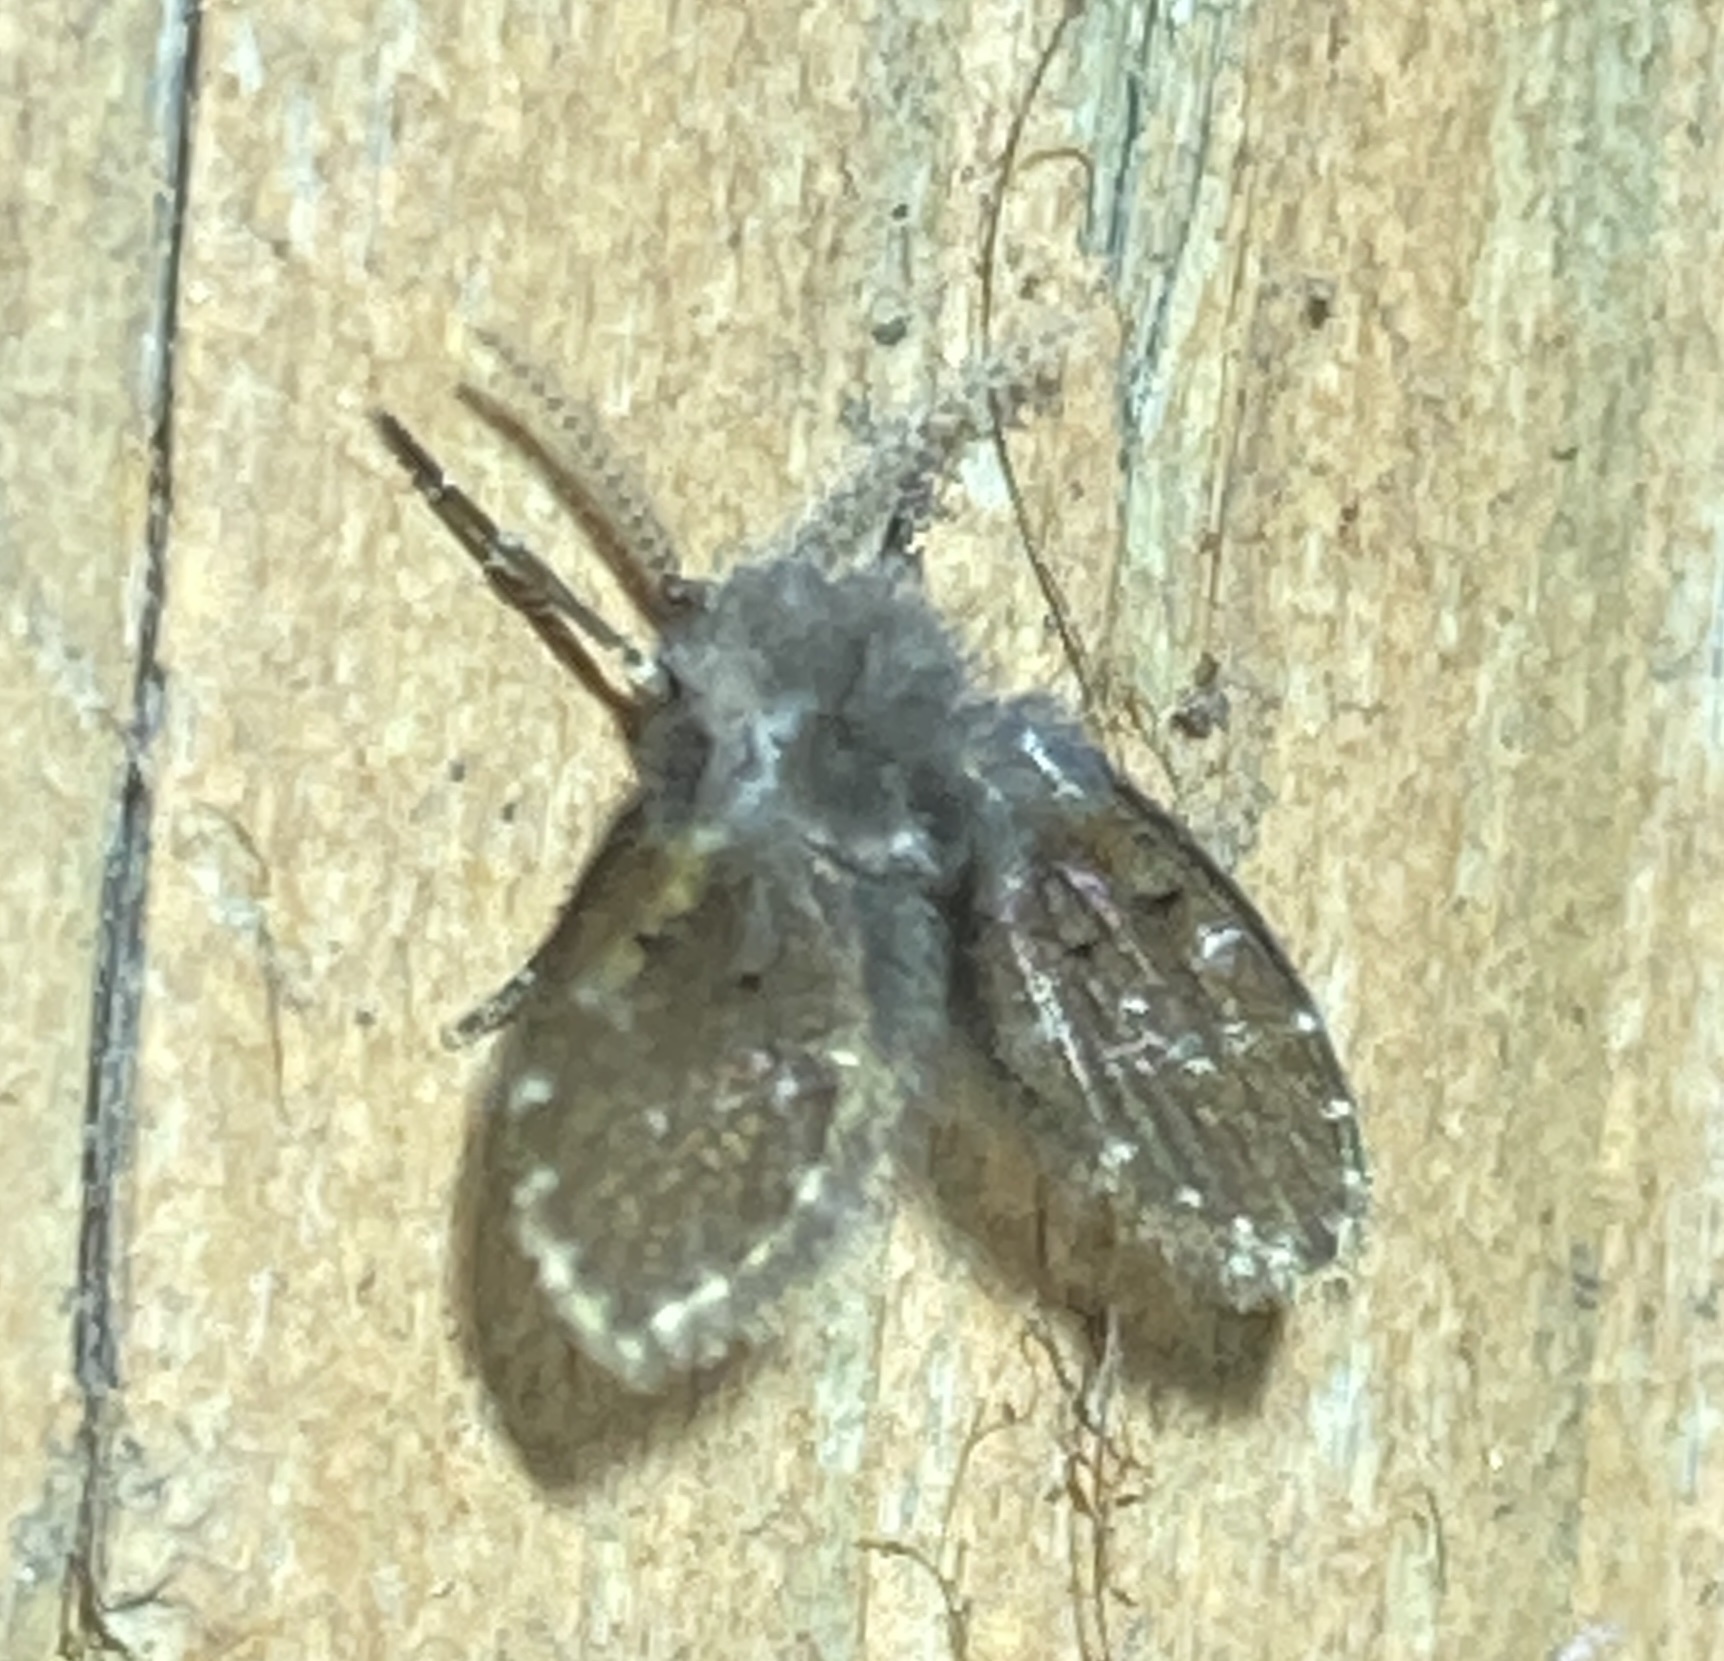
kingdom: Animalia
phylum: Arthropoda
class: Insecta
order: Diptera
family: Psychodidae
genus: Clogmia
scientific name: Clogmia albipunctatus
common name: White-spotted moth fly
